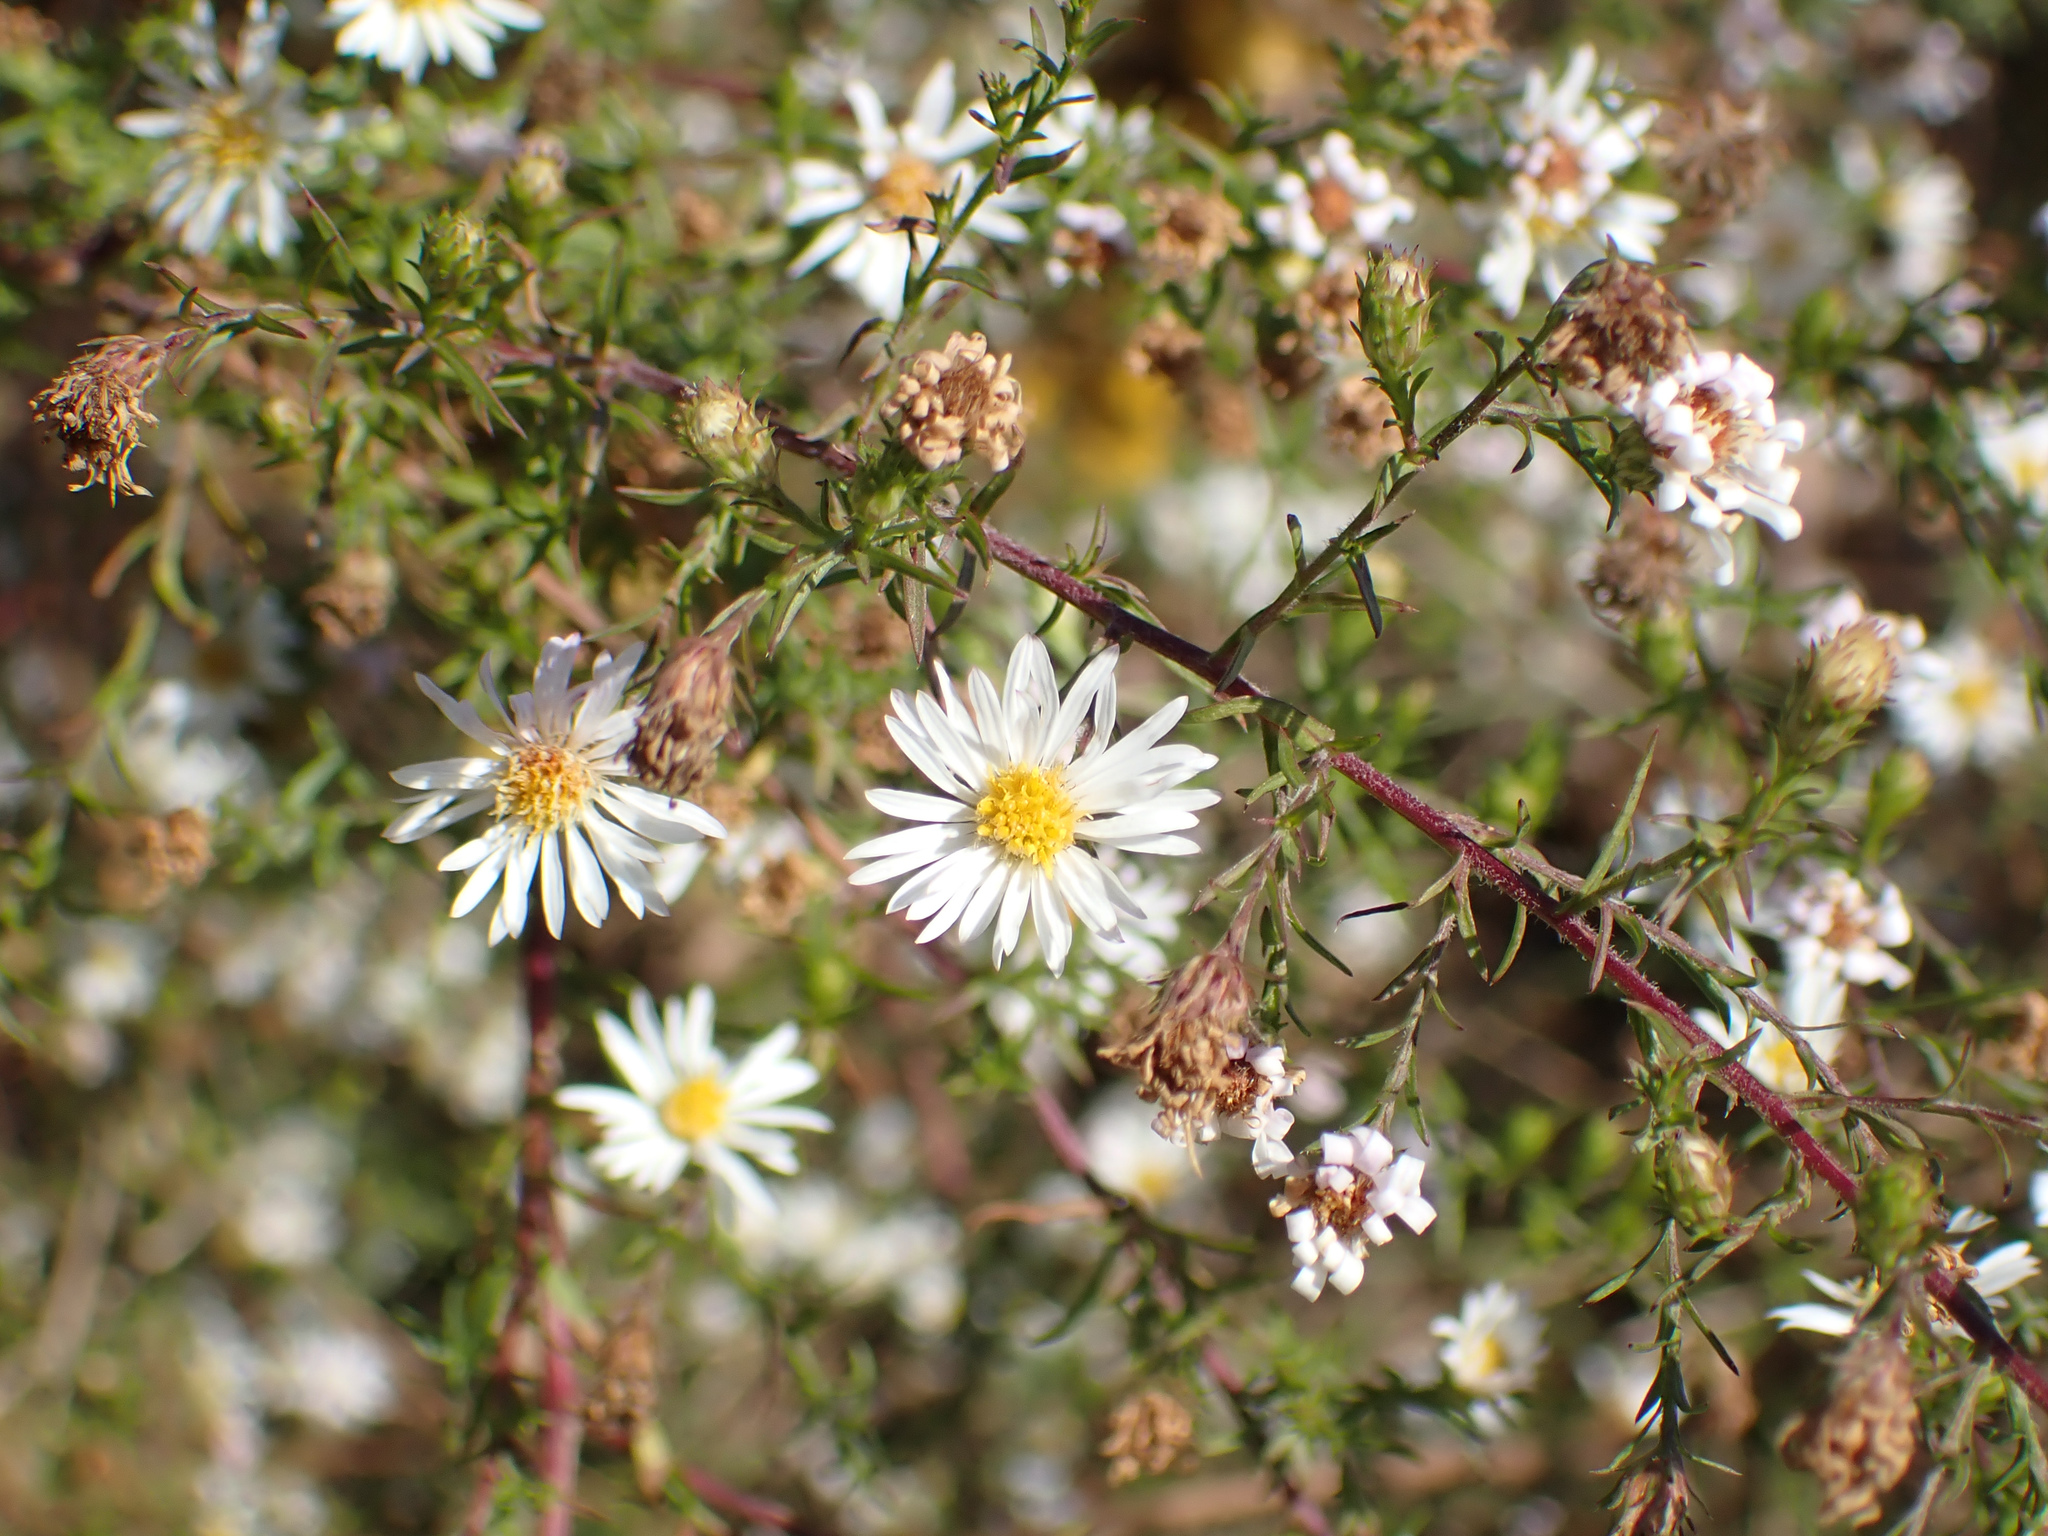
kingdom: Plantae
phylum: Tracheophyta
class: Magnoliopsida
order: Asterales
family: Asteraceae
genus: Symphyotrichum
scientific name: Symphyotrichum pilosum
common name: Awl aster
